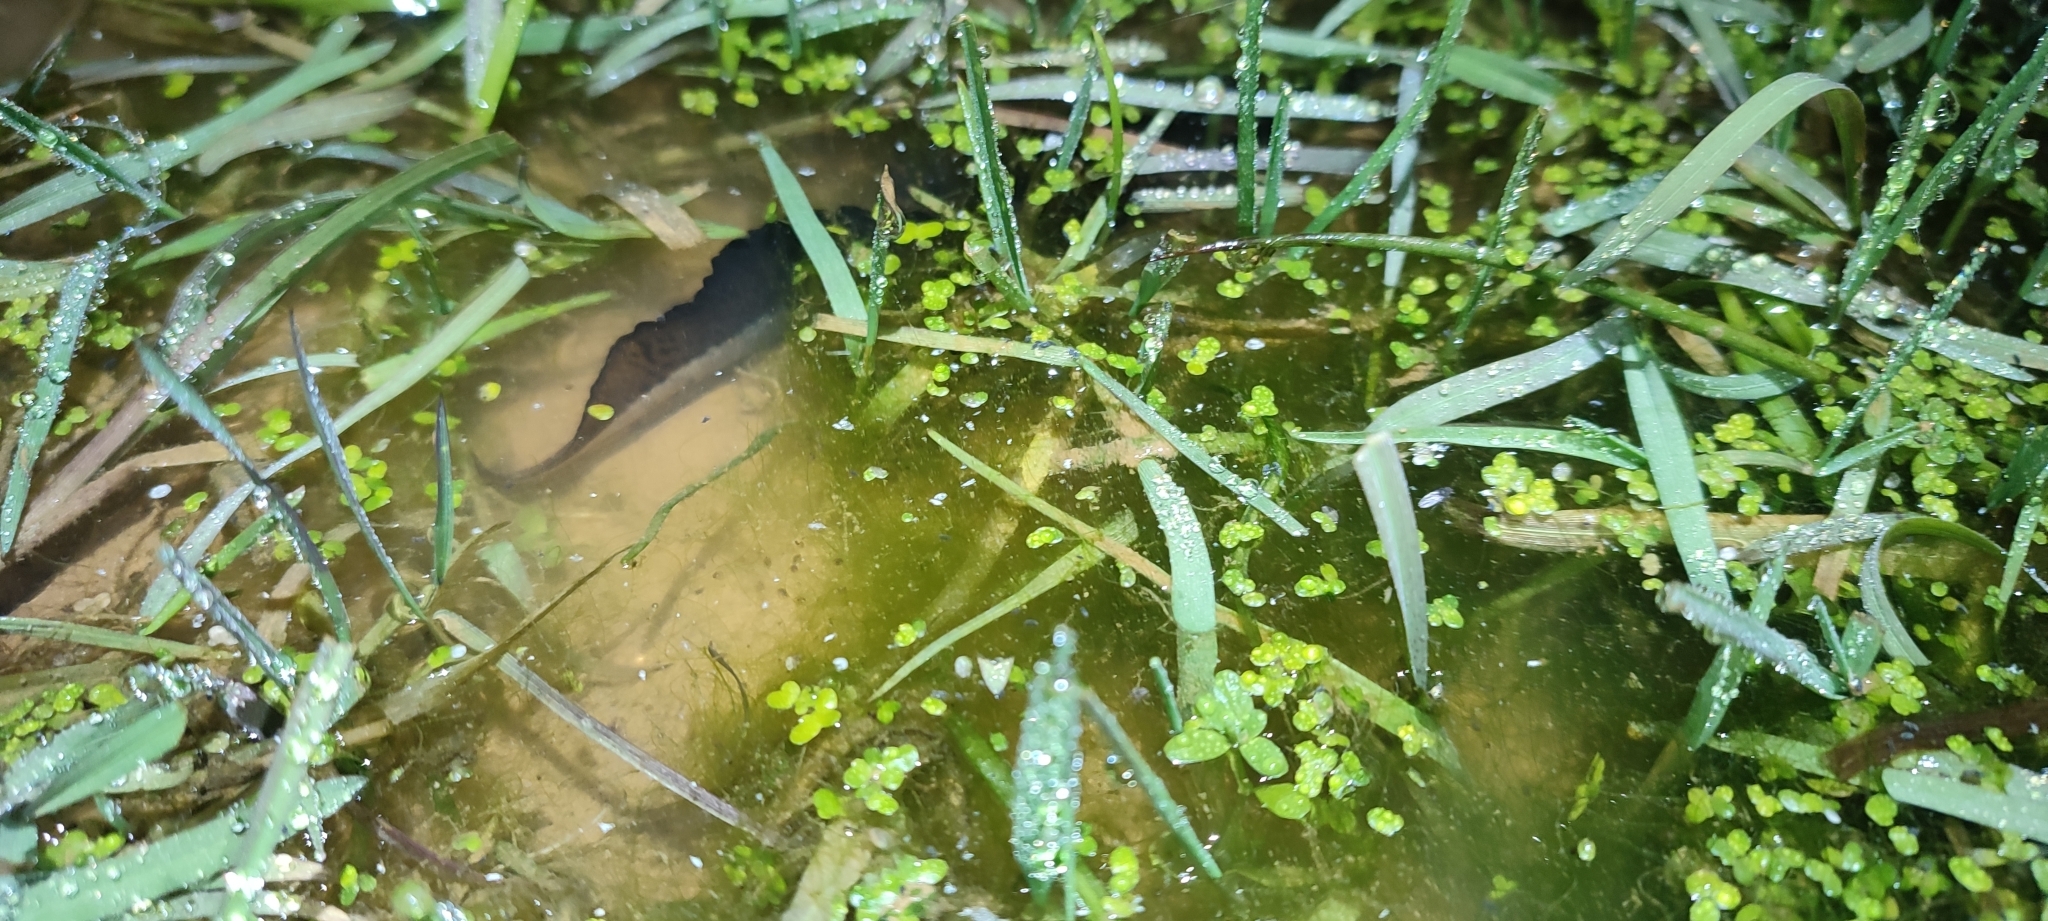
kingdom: Animalia
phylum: Chordata
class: Amphibia
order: Caudata
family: Salamandridae
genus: Triturus
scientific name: Triturus cristatus
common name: Crested newt
